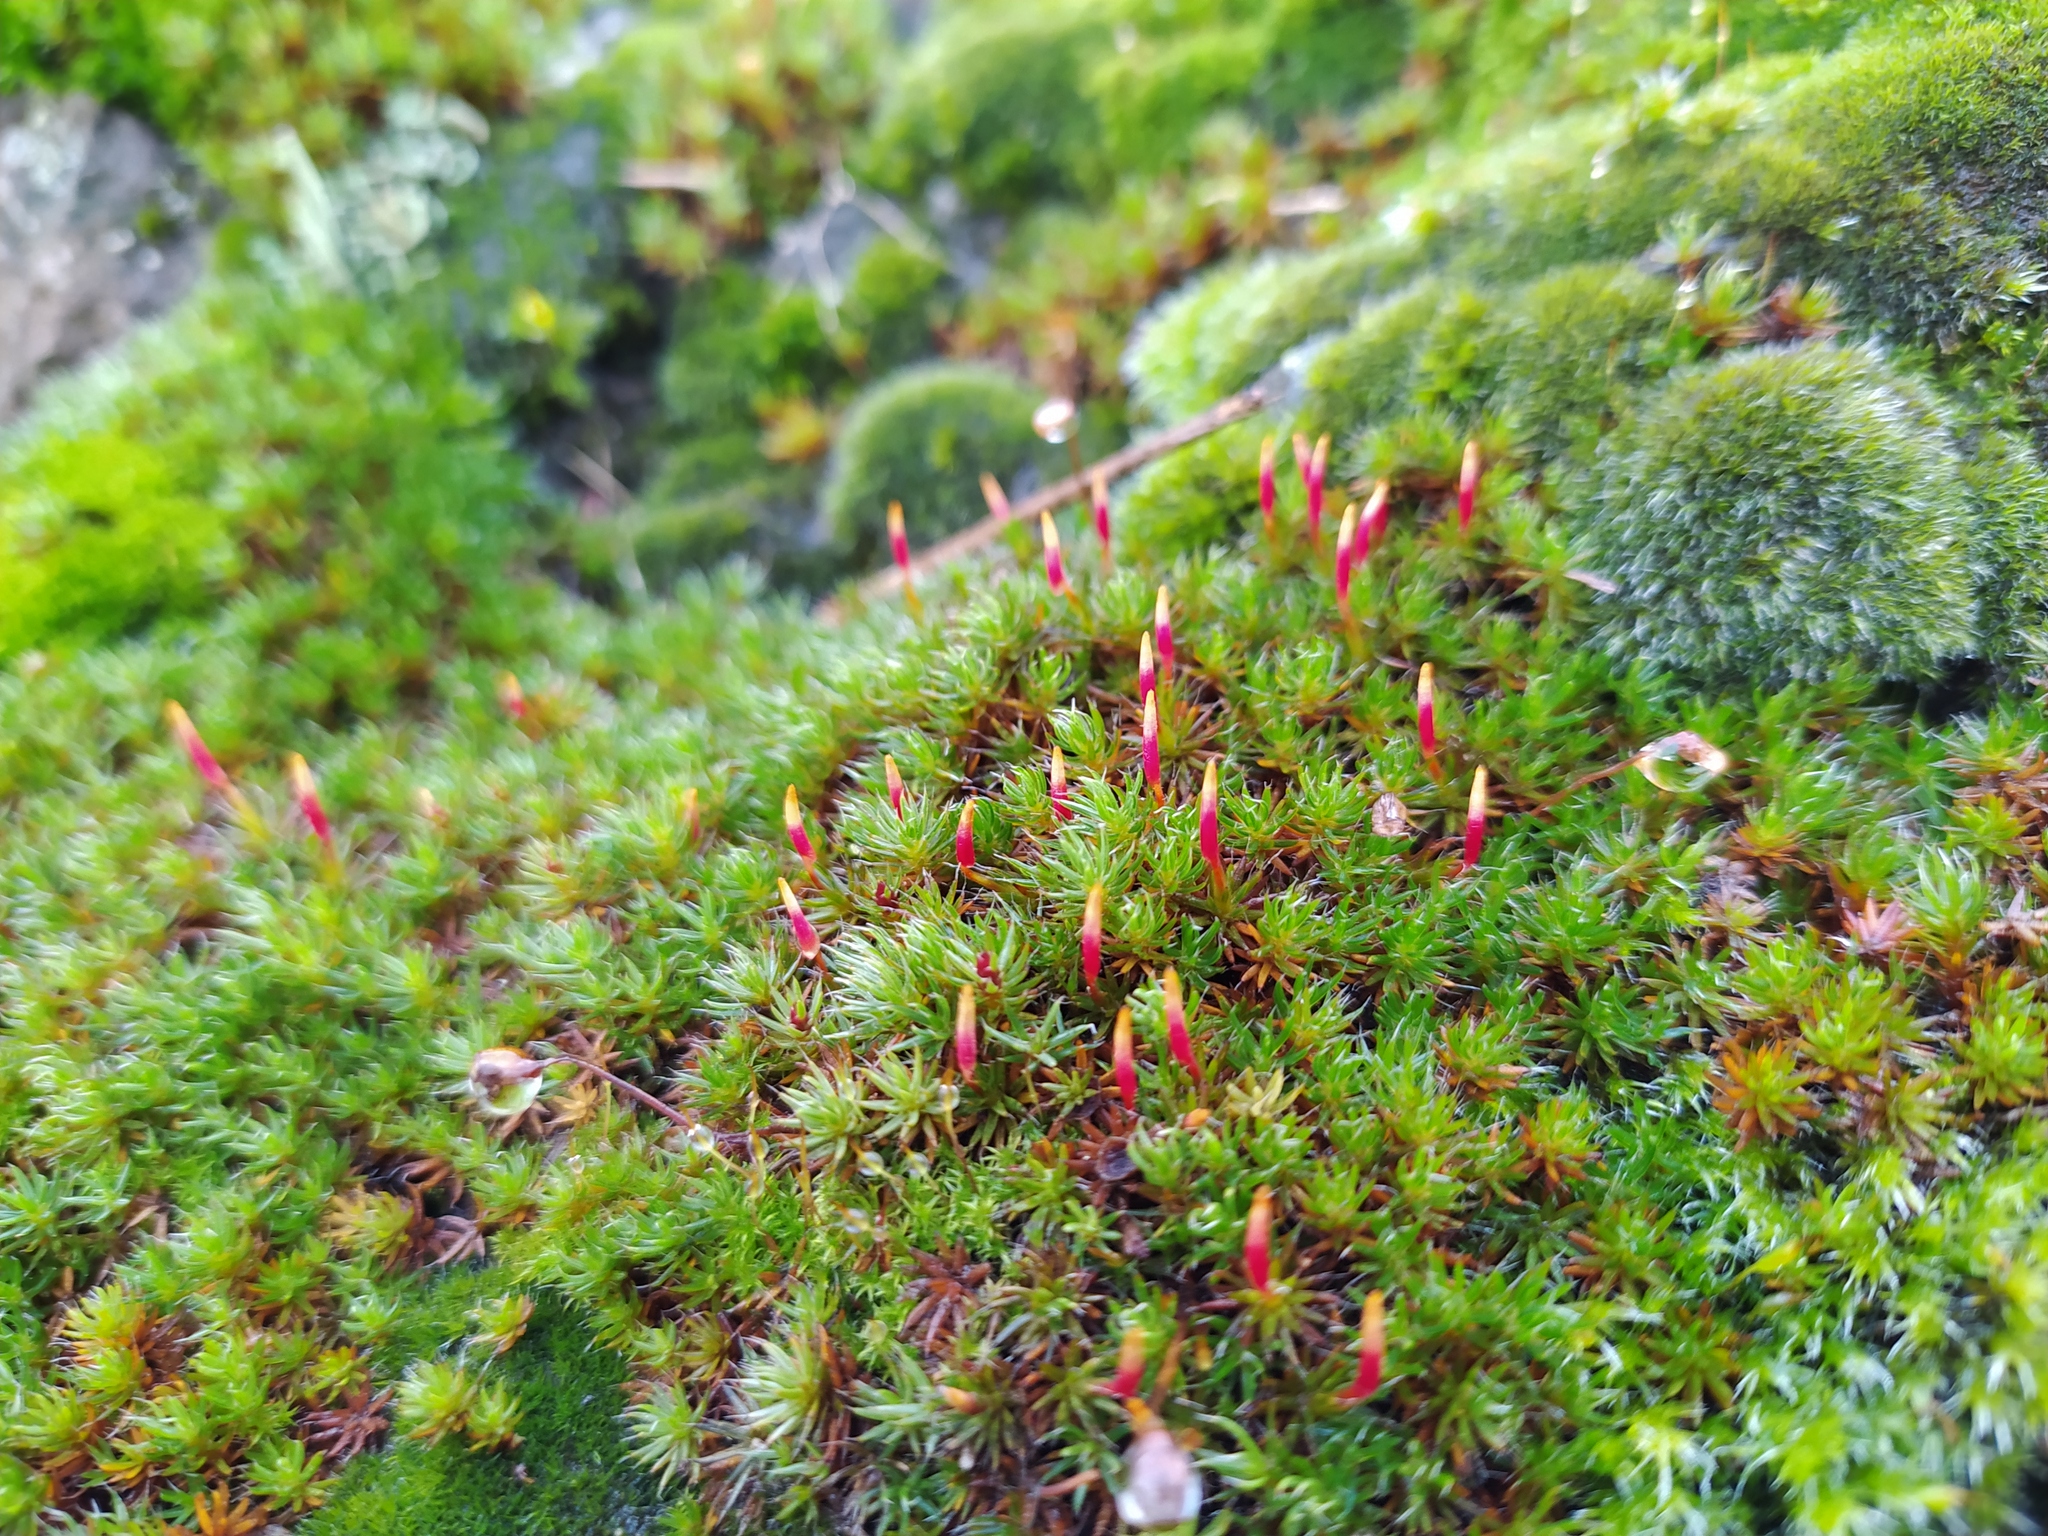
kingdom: Plantae
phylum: Bryophyta
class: Polytrichopsida
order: Polytrichales
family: Polytrichaceae
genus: Polytrichum
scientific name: Polytrichum piliferum
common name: Bristly haircap
